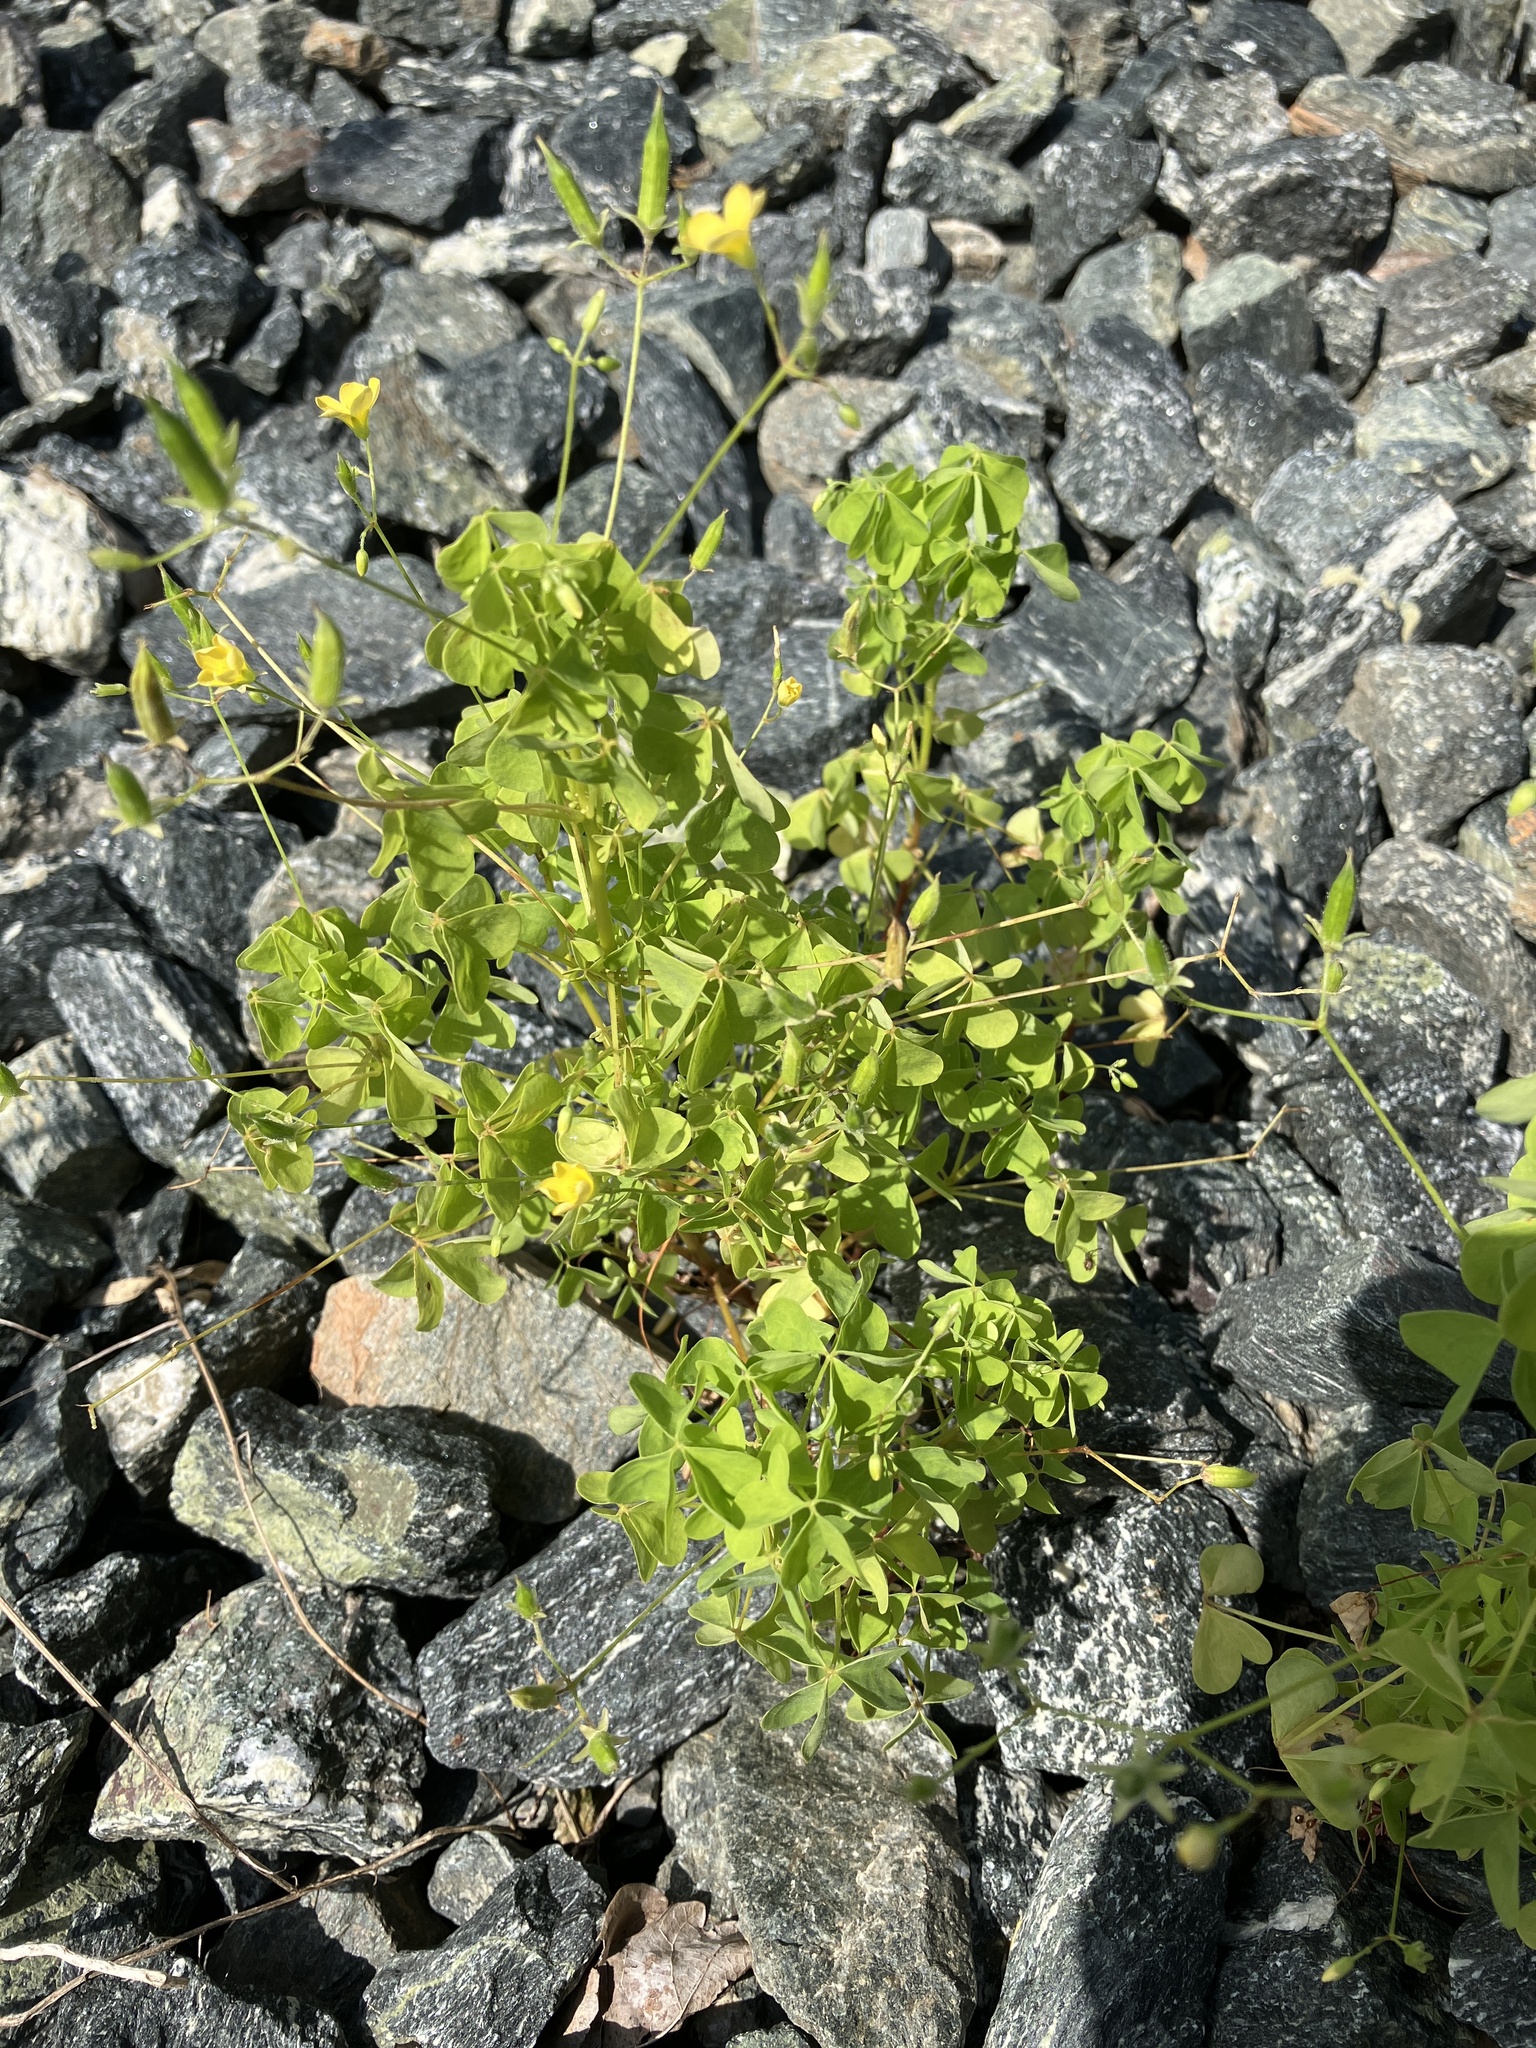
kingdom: Plantae
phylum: Tracheophyta
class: Magnoliopsida
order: Oxalidales
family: Oxalidaceae
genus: Oxalis
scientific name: Oxalis stricta
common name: Upright yellow-sorrel
